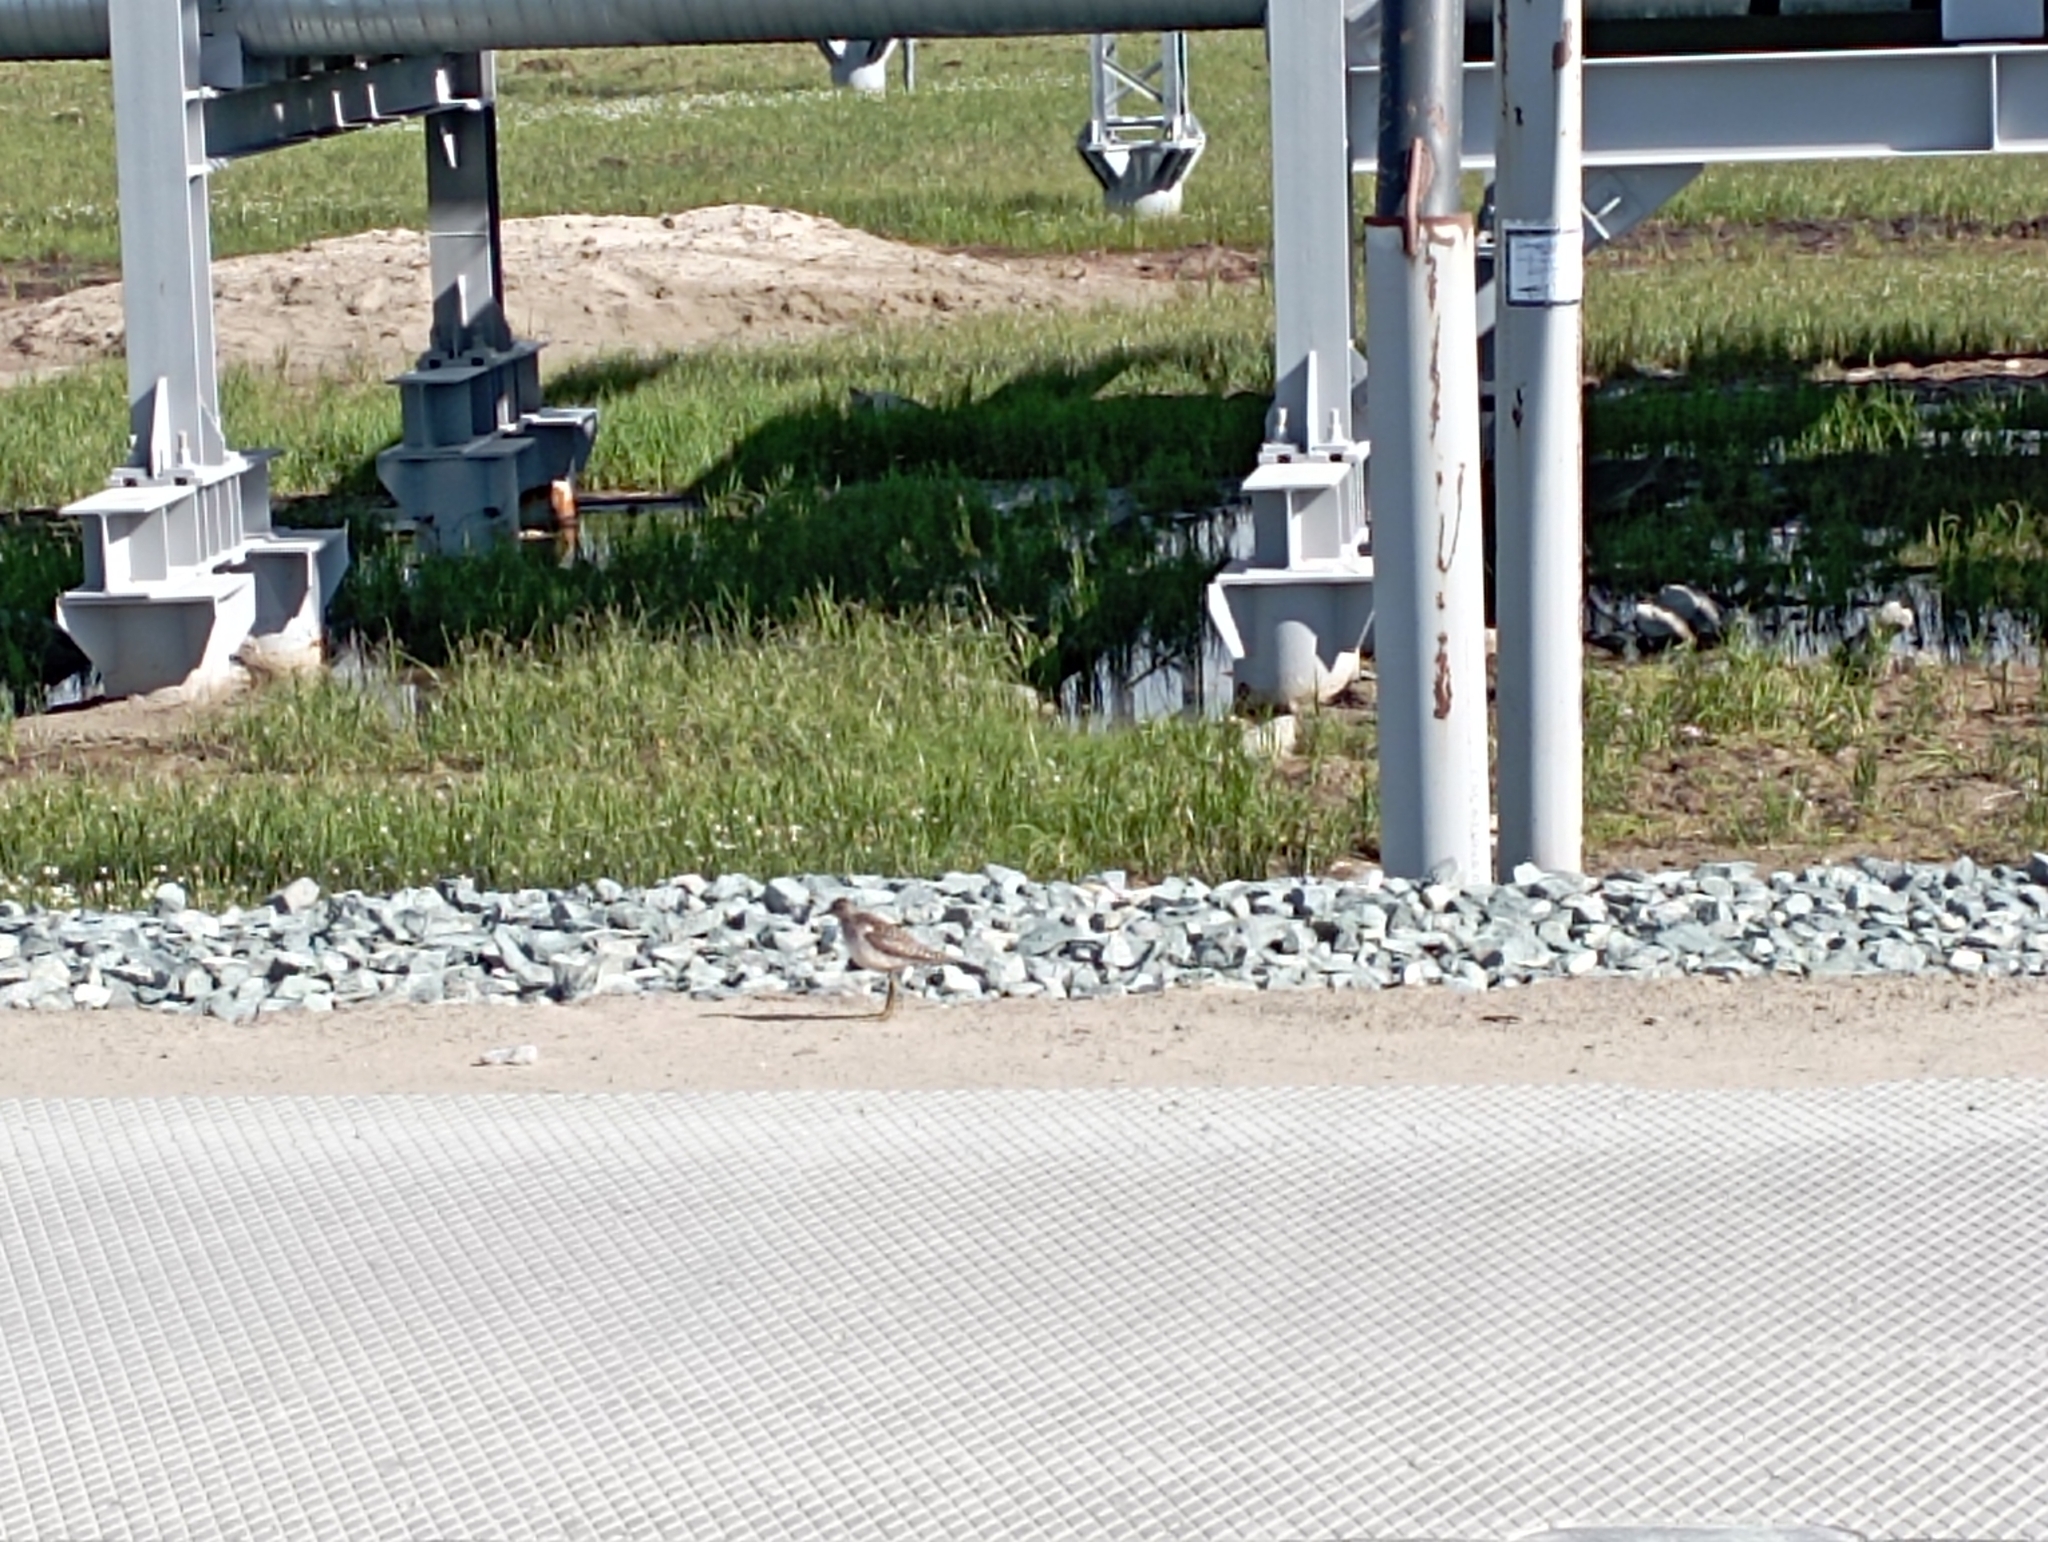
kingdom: Animalia
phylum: Chordata
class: Aves
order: Charadriiformes
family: Scolopacidae
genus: Tringa
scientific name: Tringa glareola
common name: Wood sandpiper
